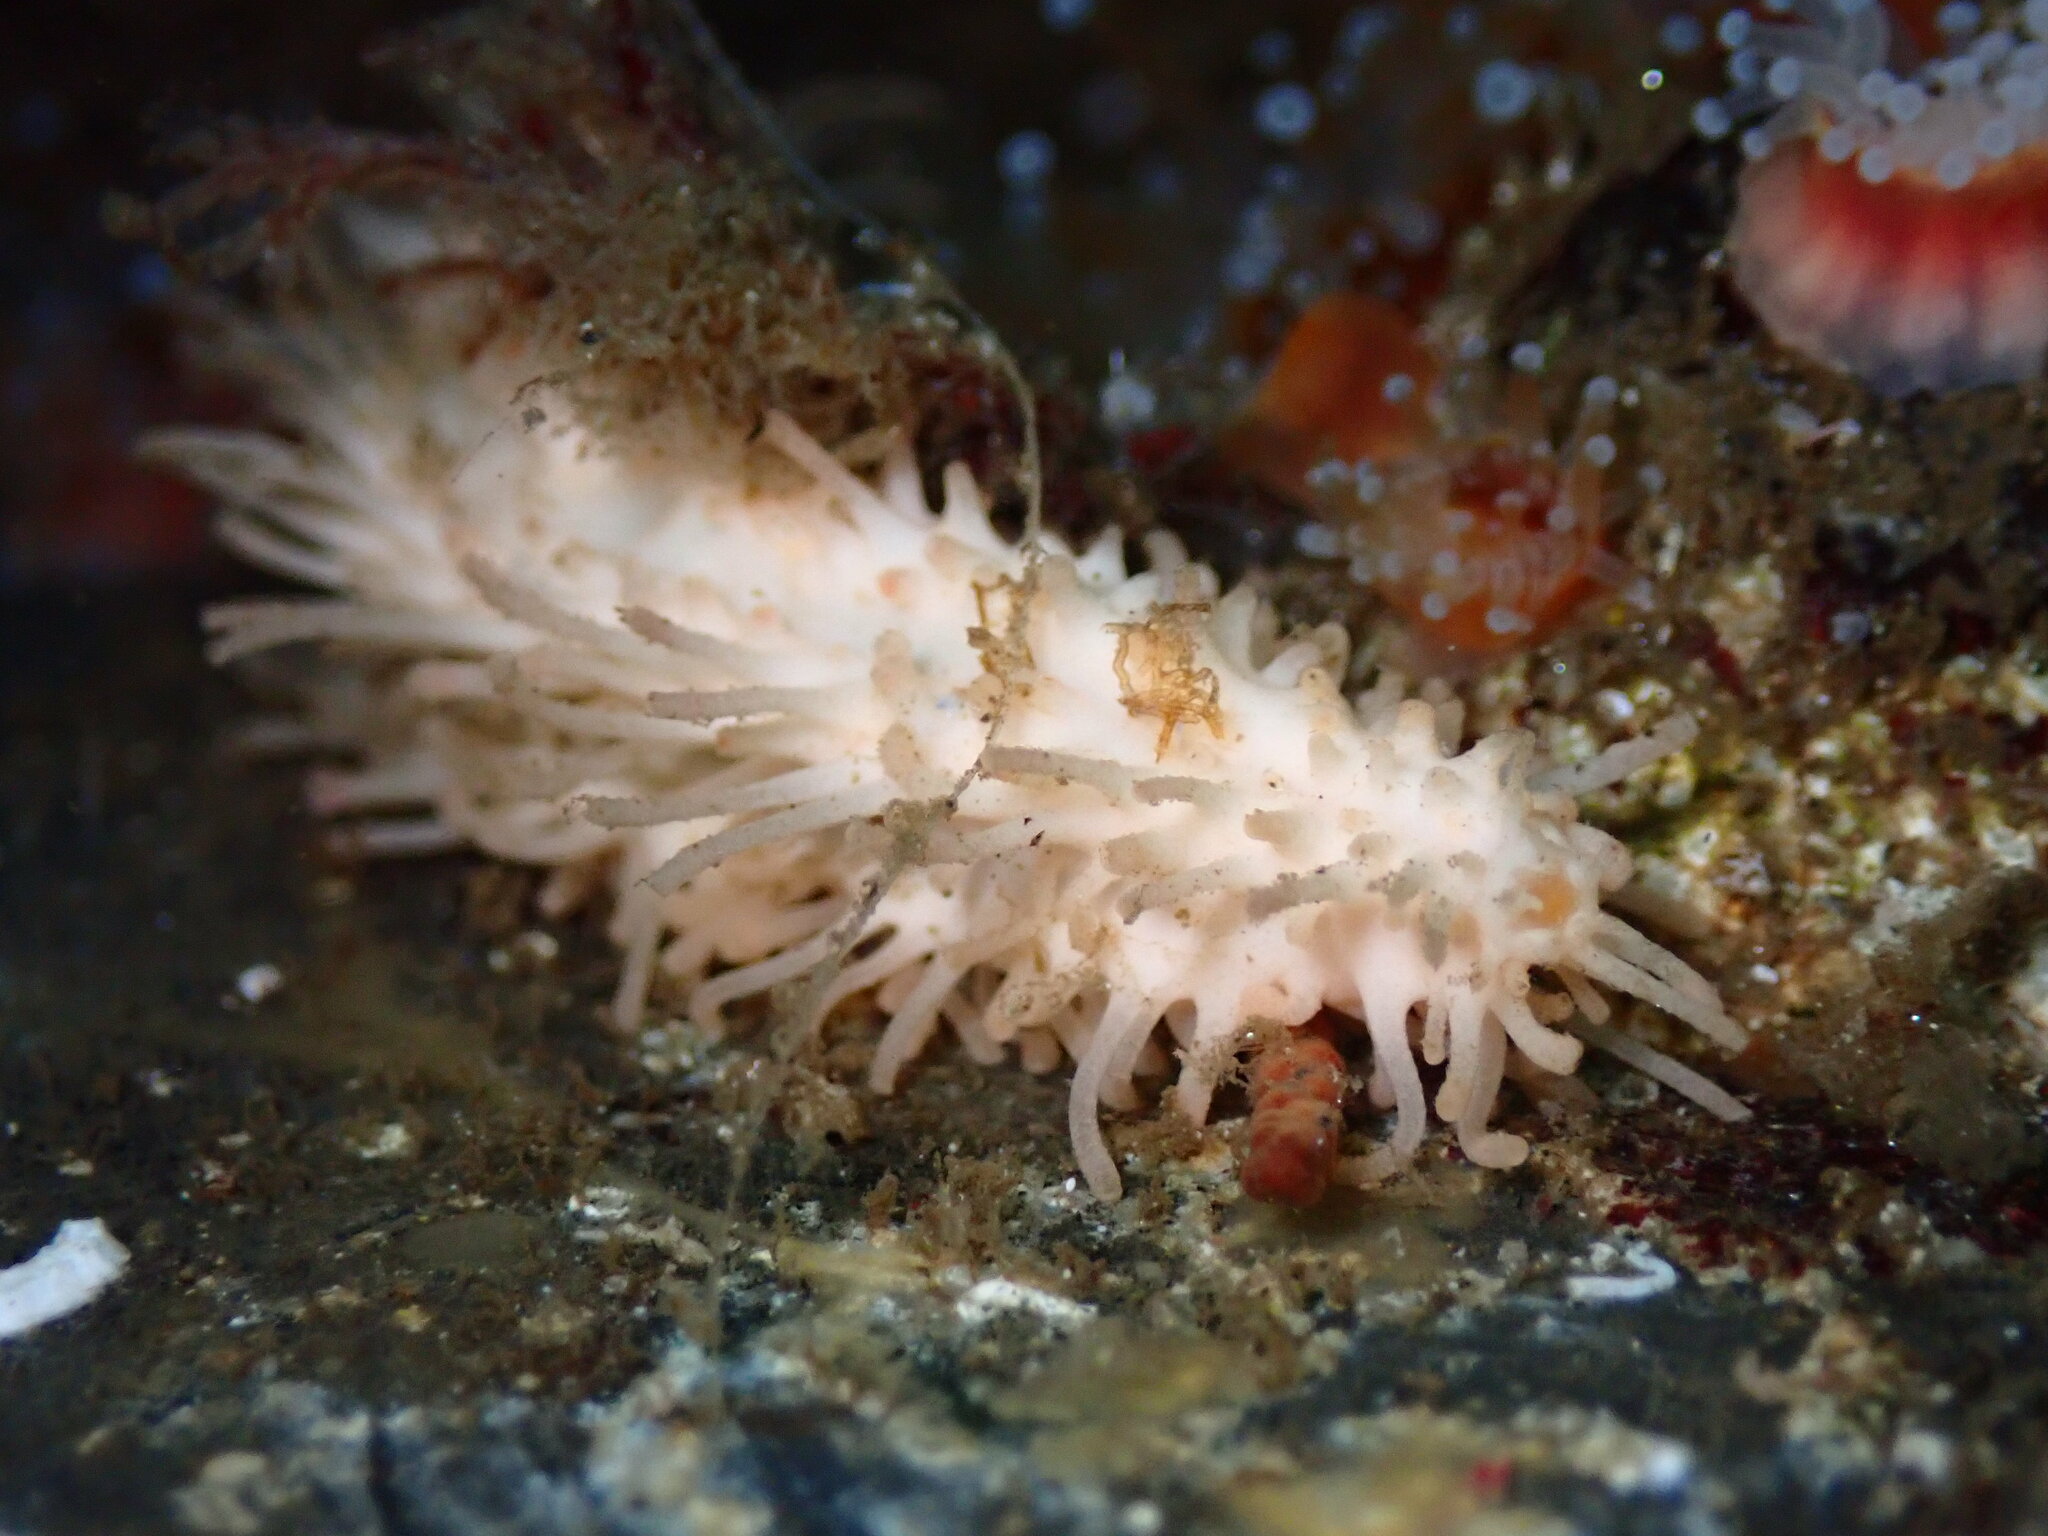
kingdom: Animalia
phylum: Echinodermata
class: Holothuroidea
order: Dendrochirotida
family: Sclerodactylidae
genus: Eupentacta
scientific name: Eupentacta quinquesemita
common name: Pentamerous sea cucumber
